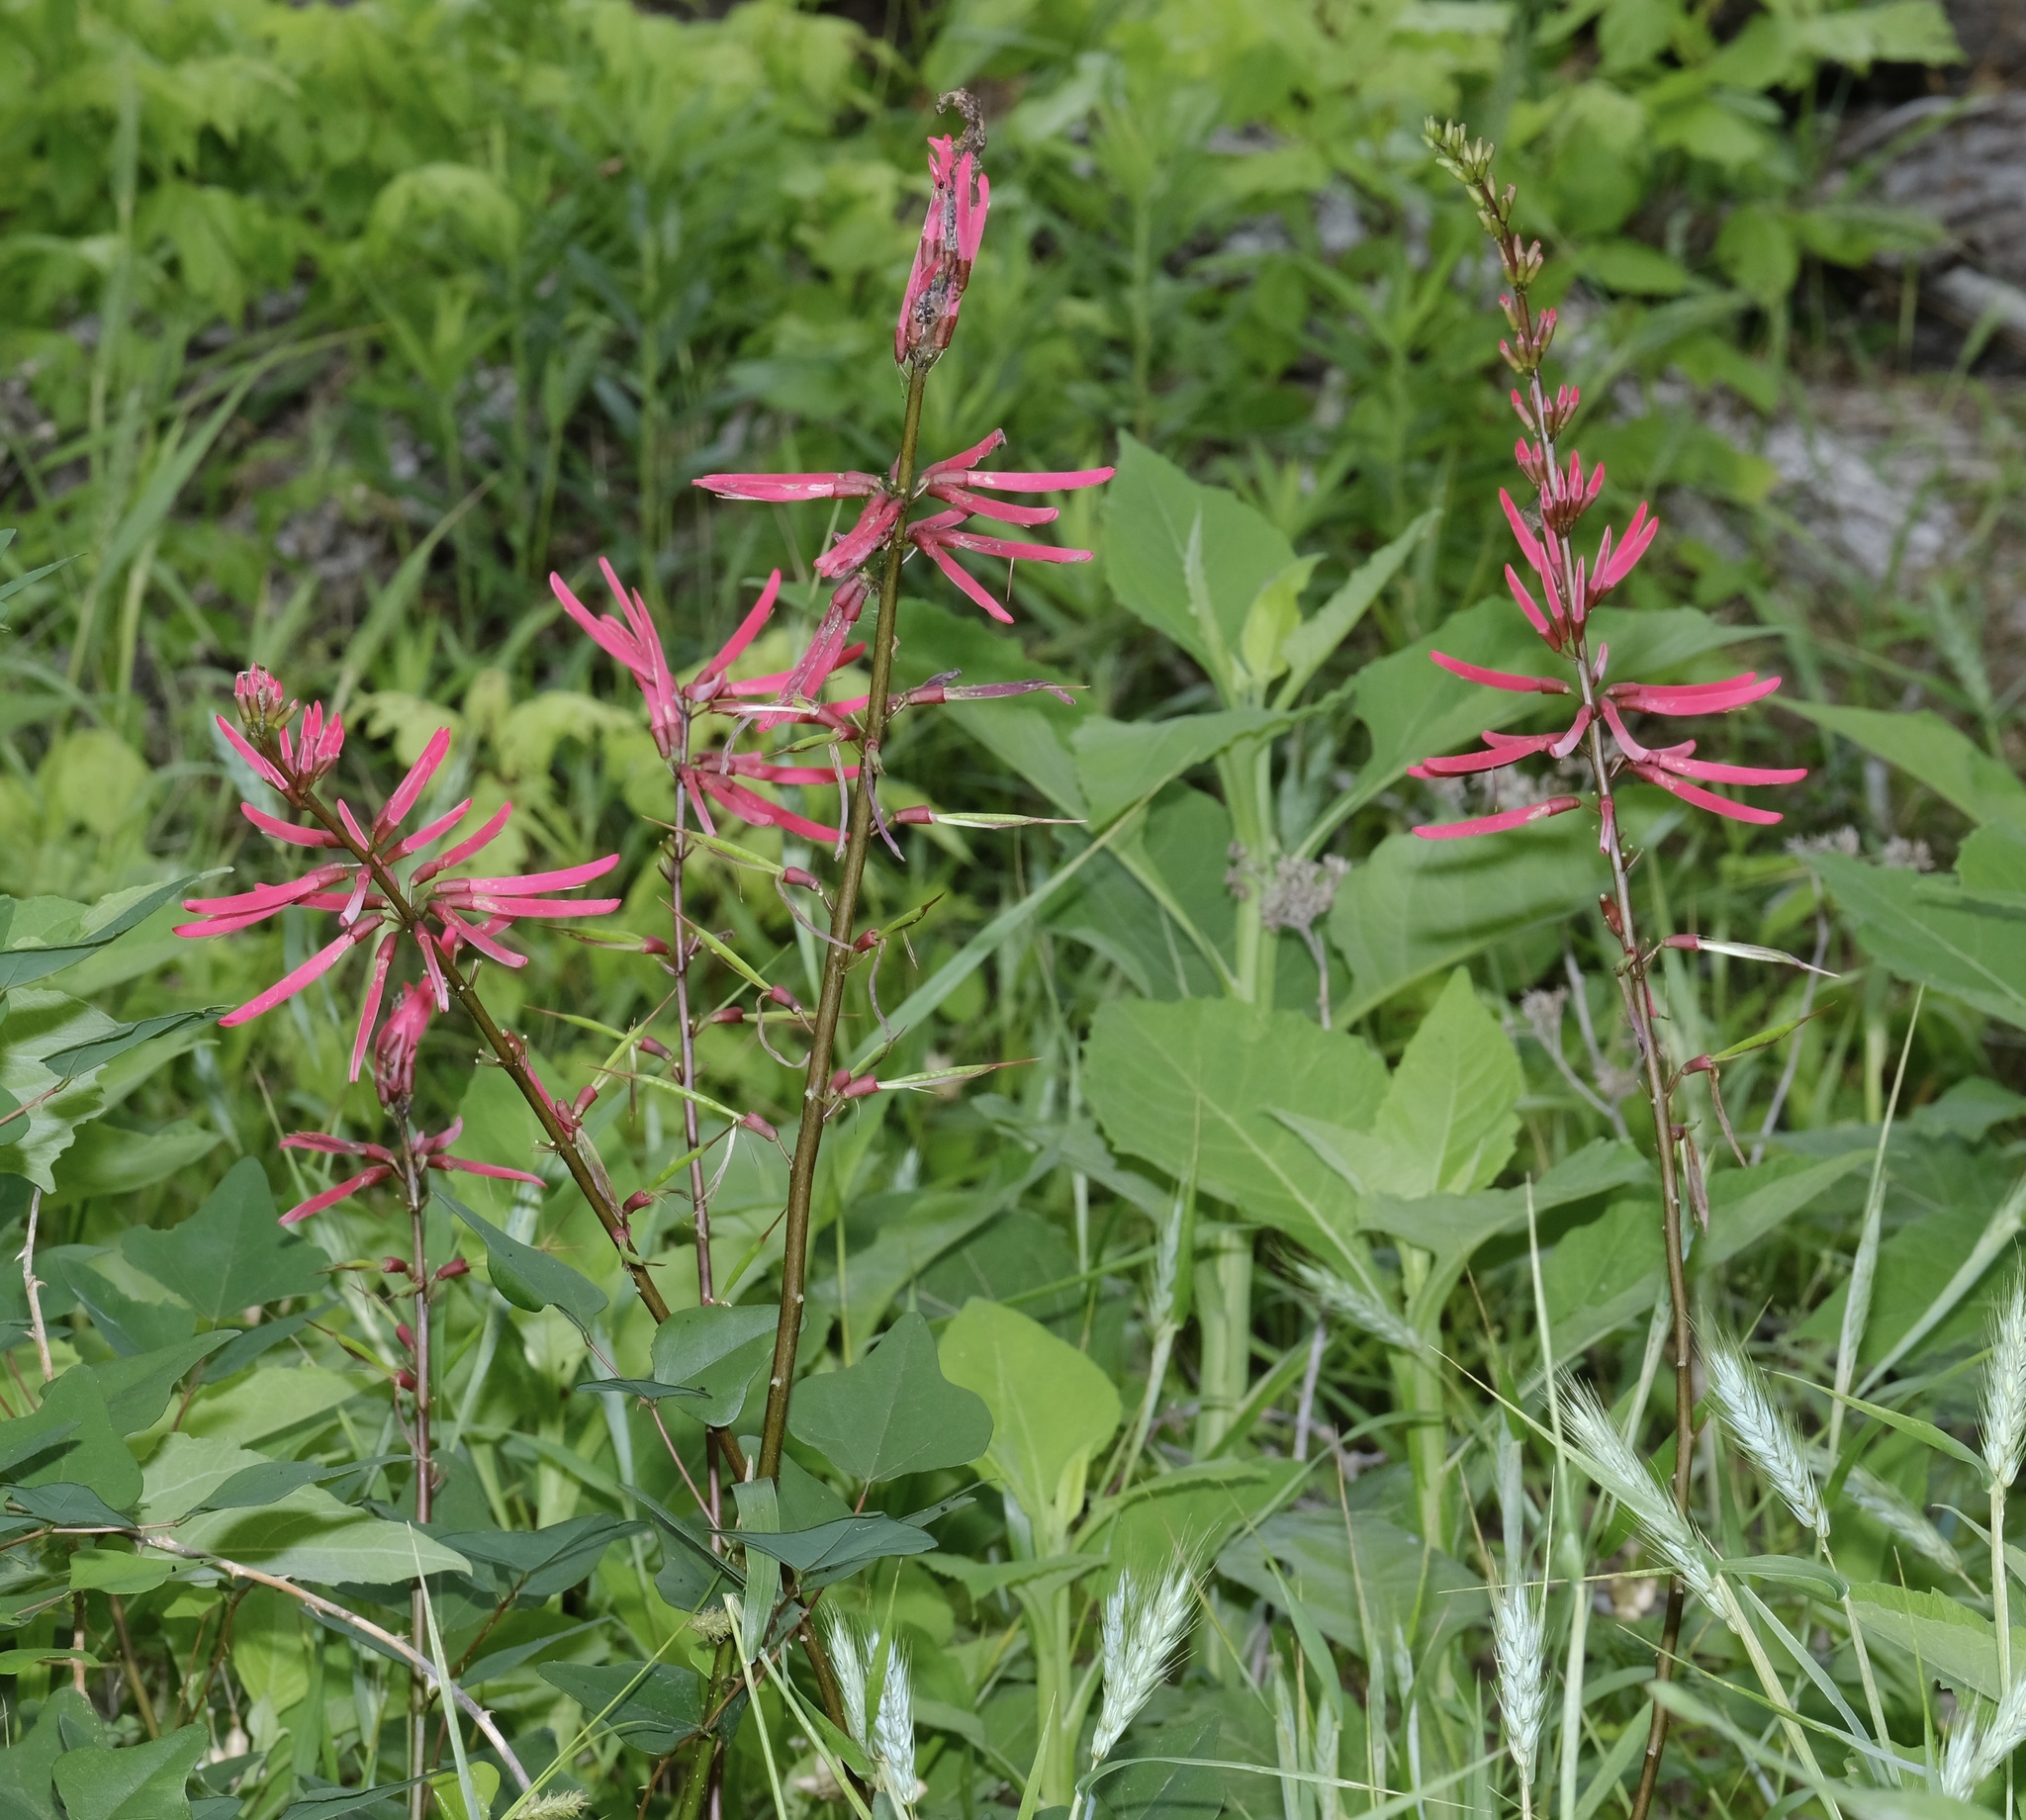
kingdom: Plantae
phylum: Tracheophyta
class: Magnoliopsida
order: Fabales
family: Fabaceae
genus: Erythrina
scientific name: Erythrina herbacea
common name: Coral-bean
